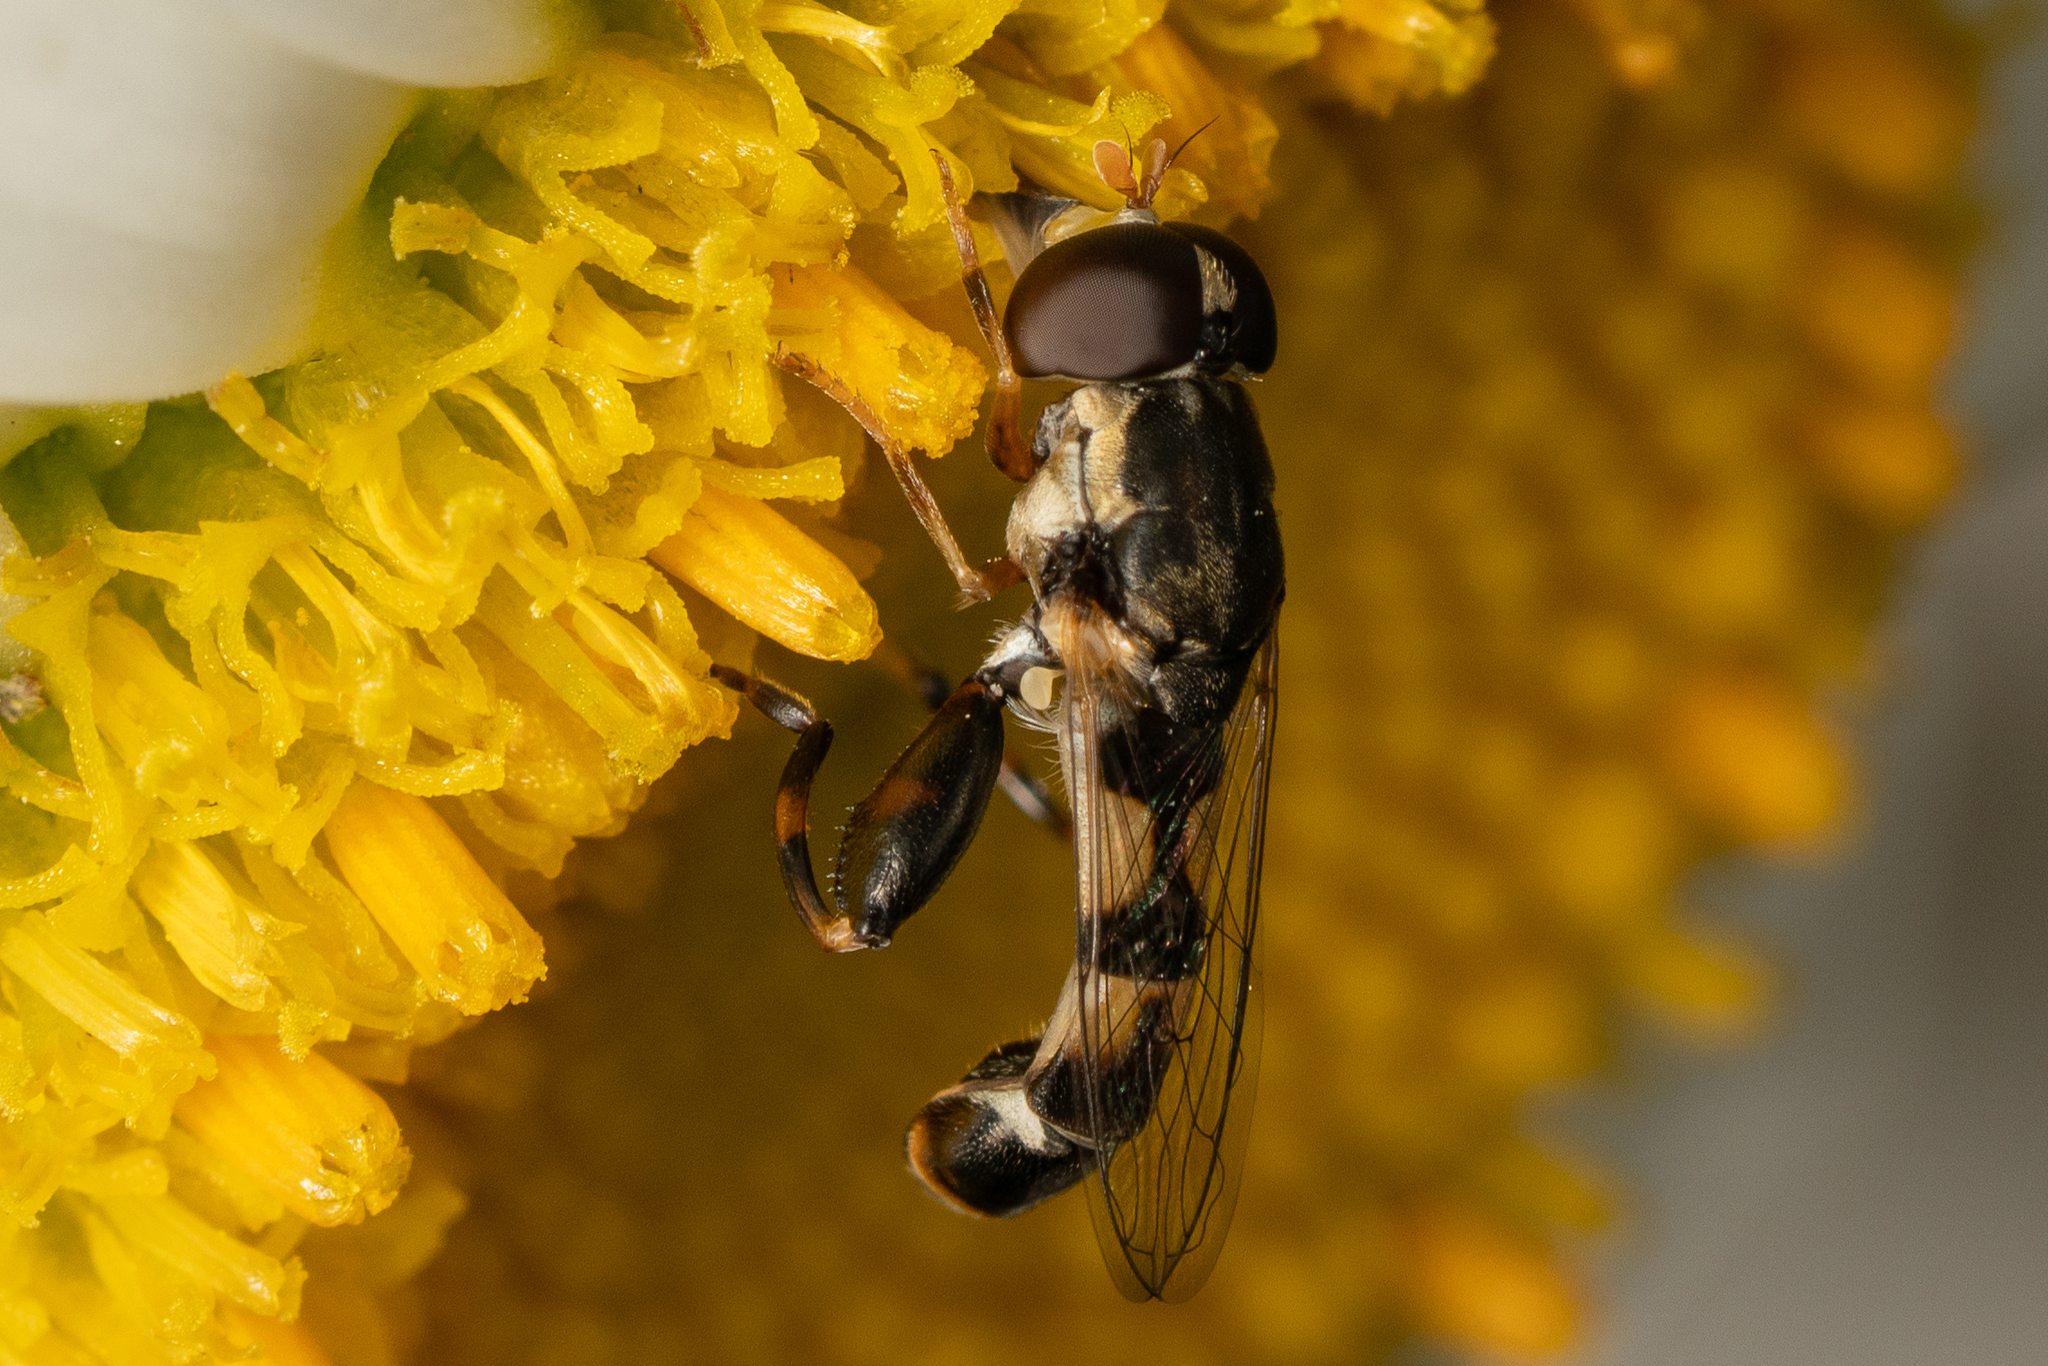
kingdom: Animalia
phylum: Arthropoda
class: Insecta
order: Diptera
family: Syrphidae
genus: Syritta
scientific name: Syritta pipiens
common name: Hover fly
